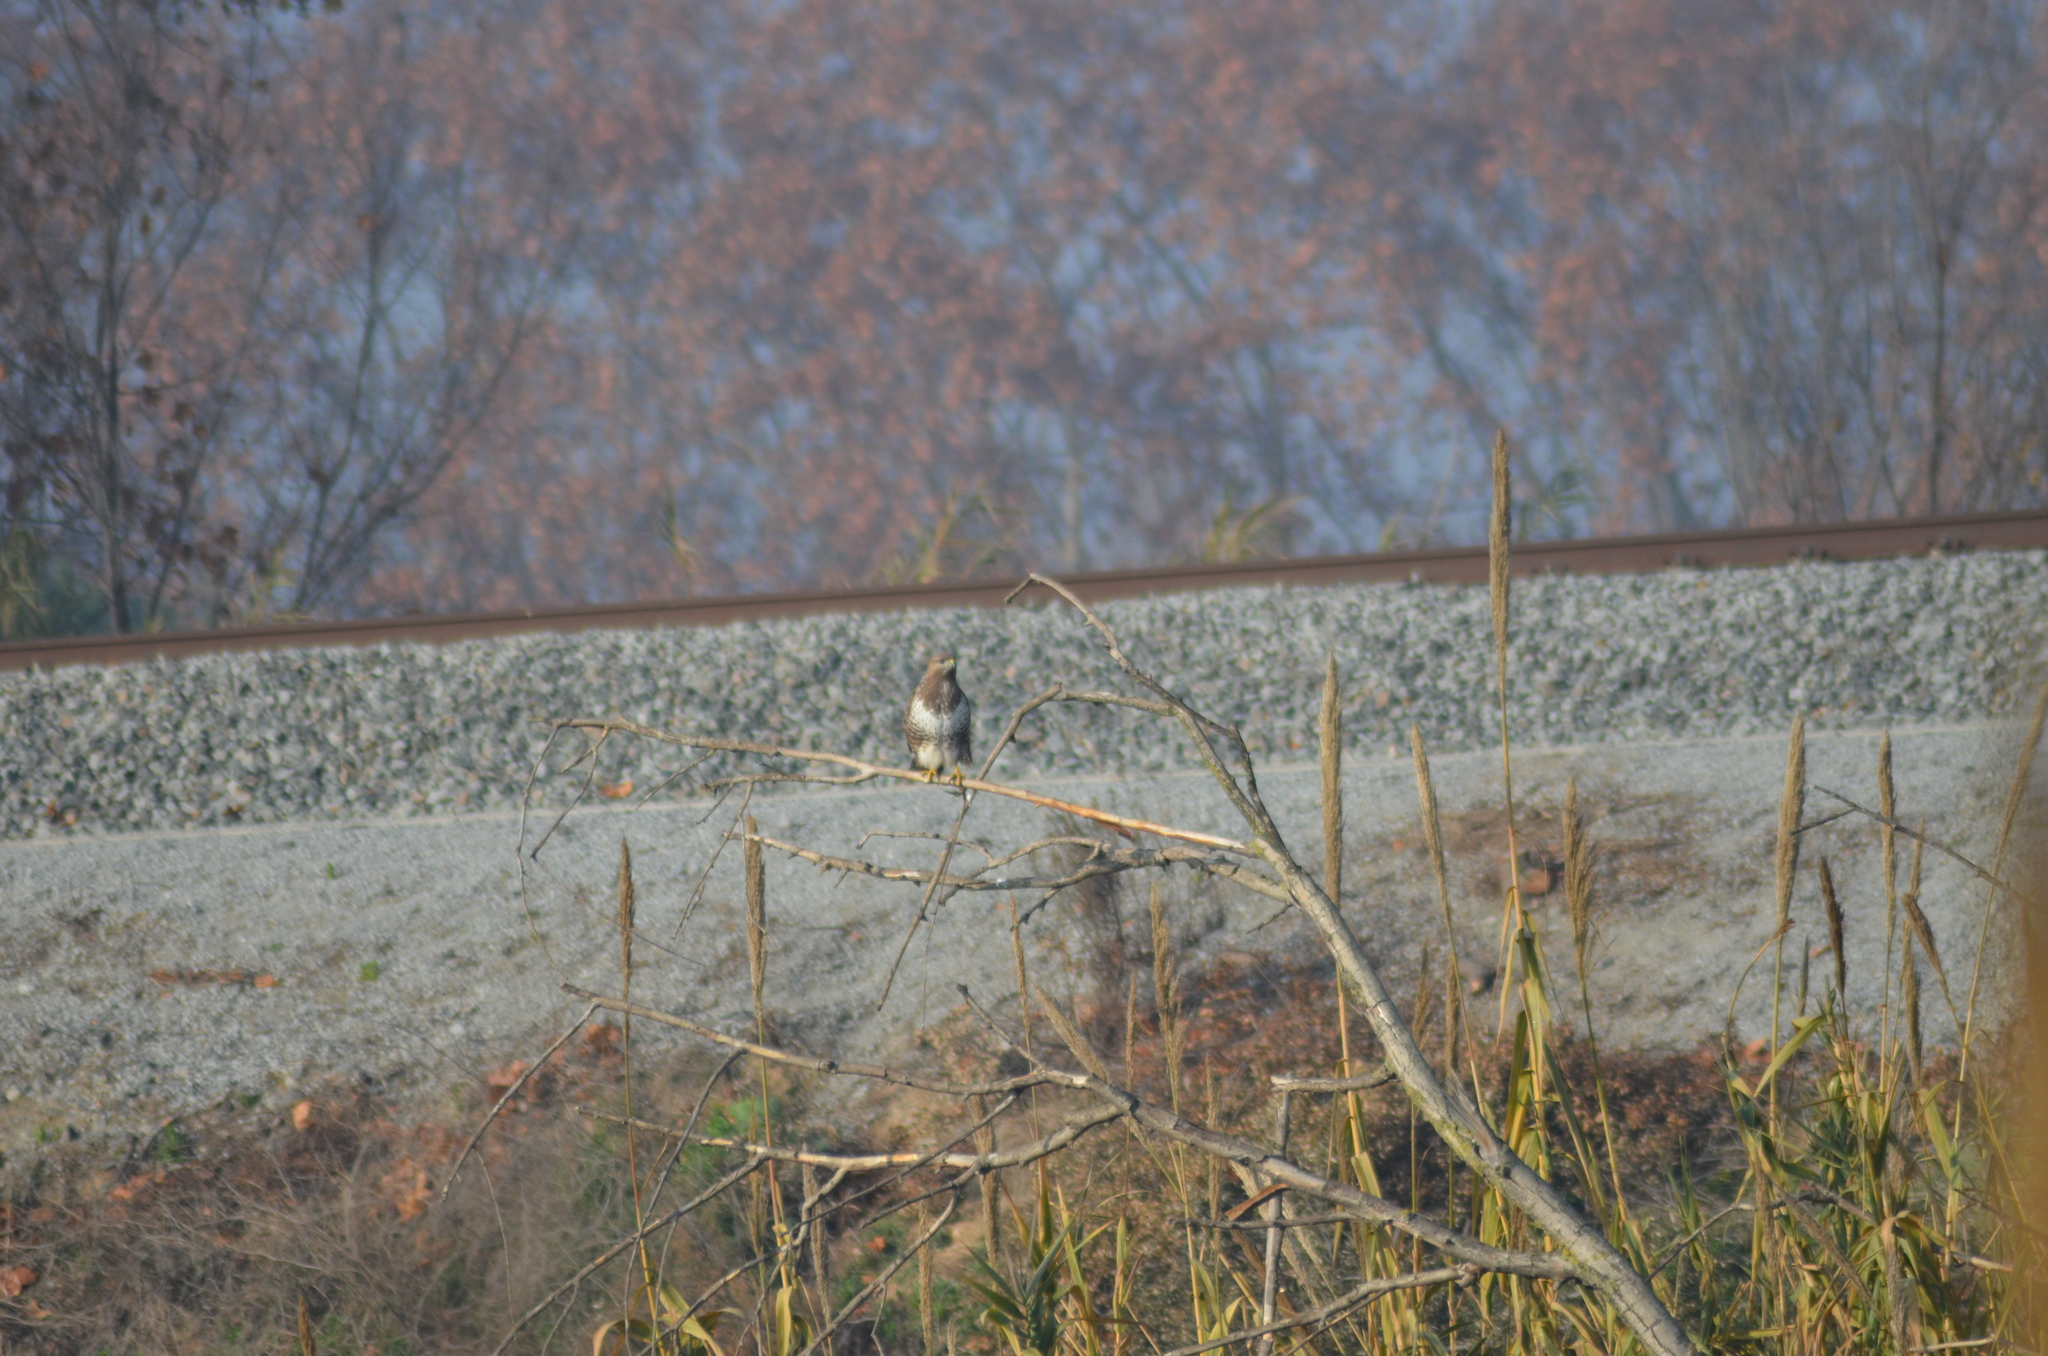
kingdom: Animalia
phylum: Chordata
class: Aves
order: Accipitriformes
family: Accipitridae
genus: Buteo
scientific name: Buteo buteo
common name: Common buzzard
